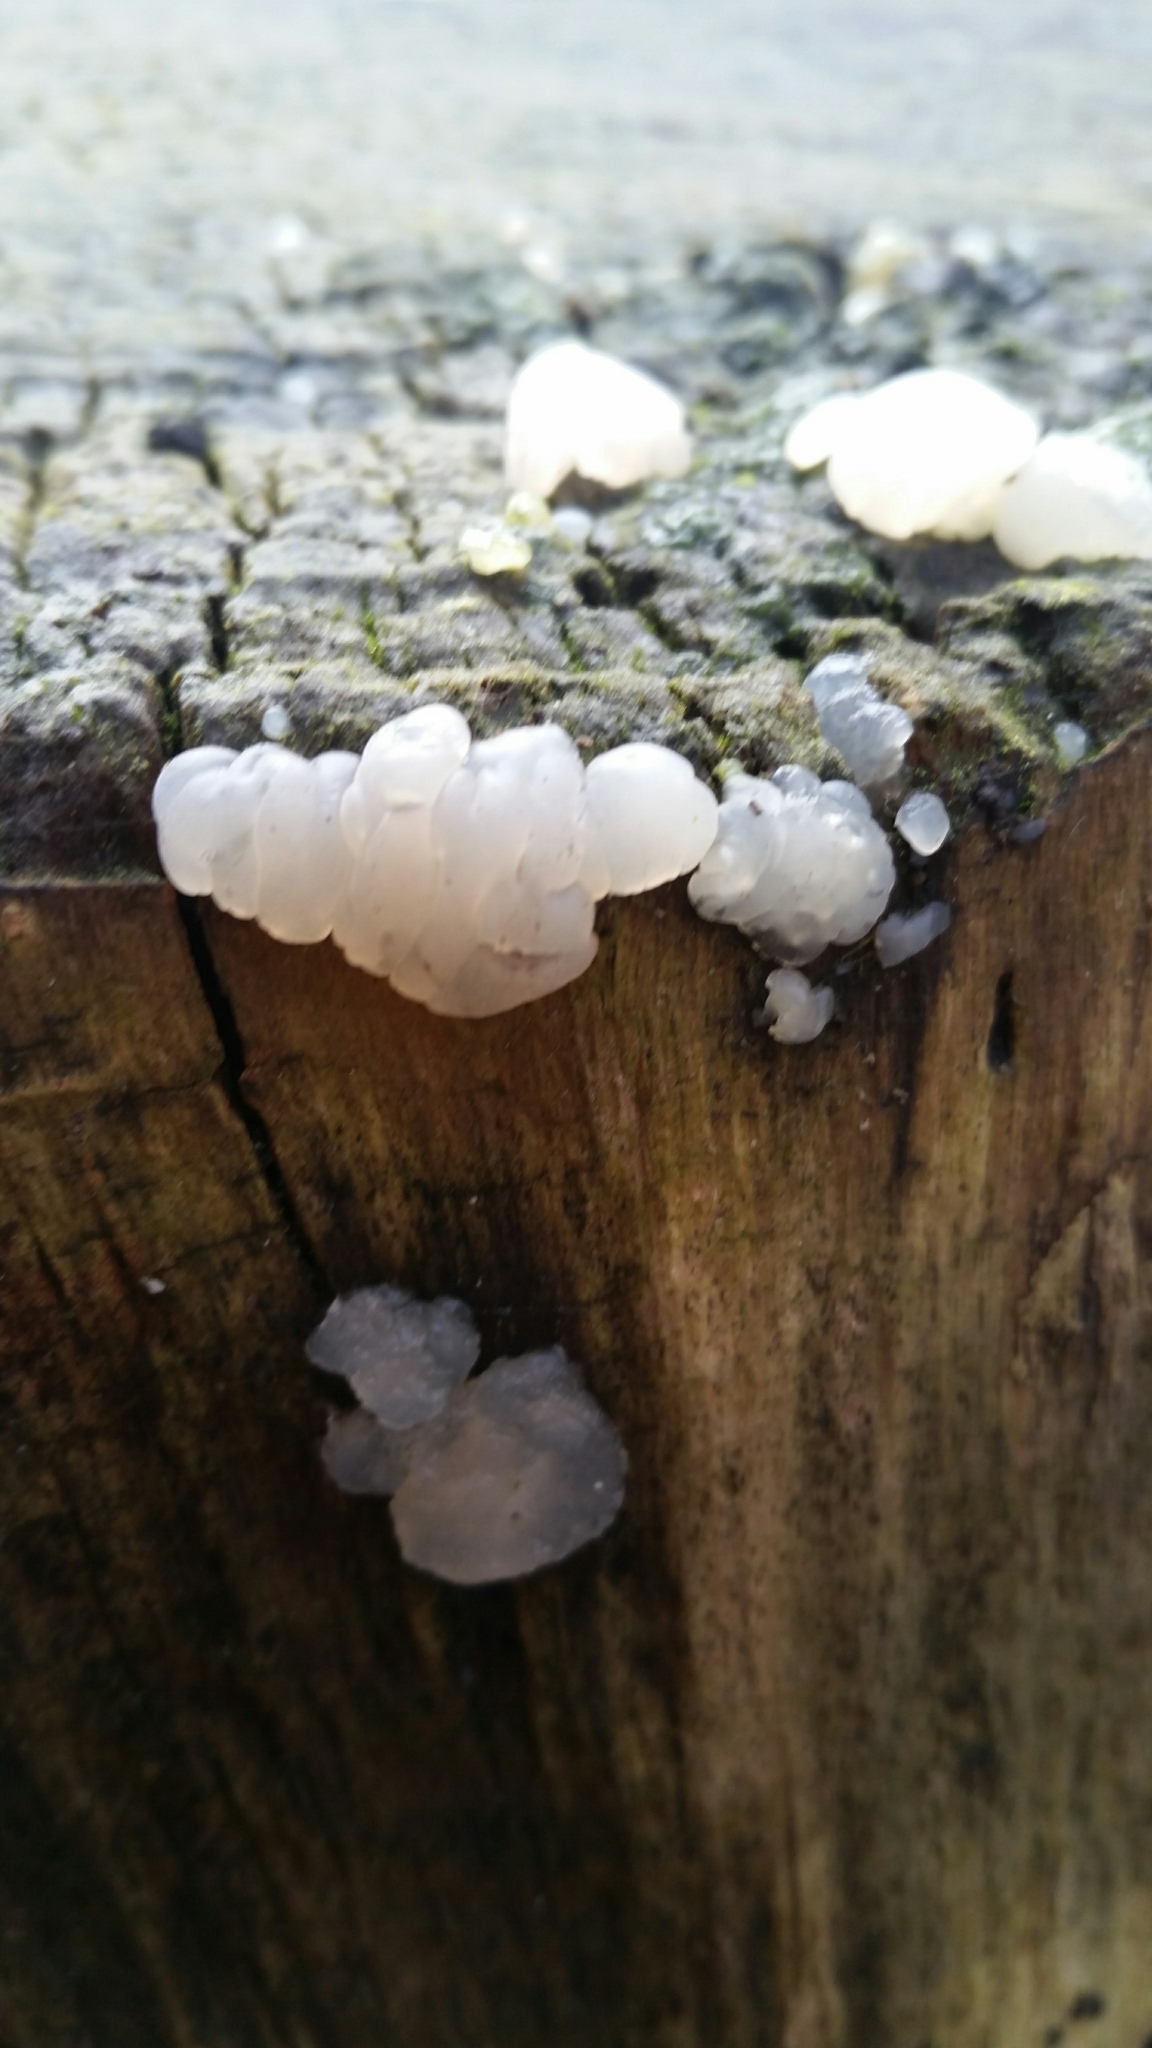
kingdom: Fungi
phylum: Basidiomycota
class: Agaricomycetes
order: Auriculariales
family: Hyaloriaceae
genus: Myxarium
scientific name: Myxarium nucleatum
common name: Crystal brain fungus
